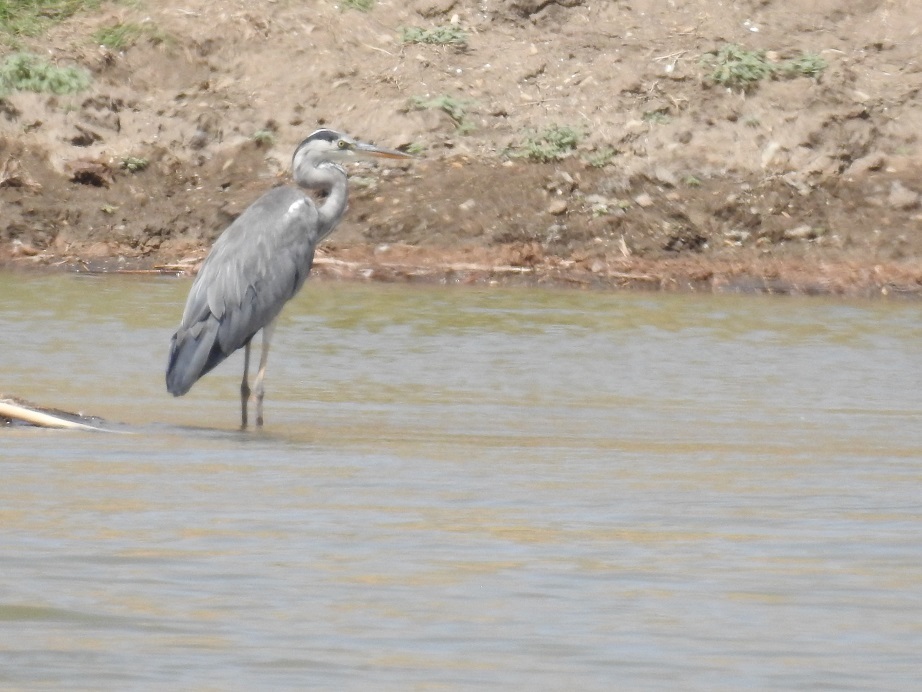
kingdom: Animalia
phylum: Chordata
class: Aves
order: Pelecaniformes
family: Ardeidae
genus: Ardea
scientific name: Ardea cinerea
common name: Grey heron
